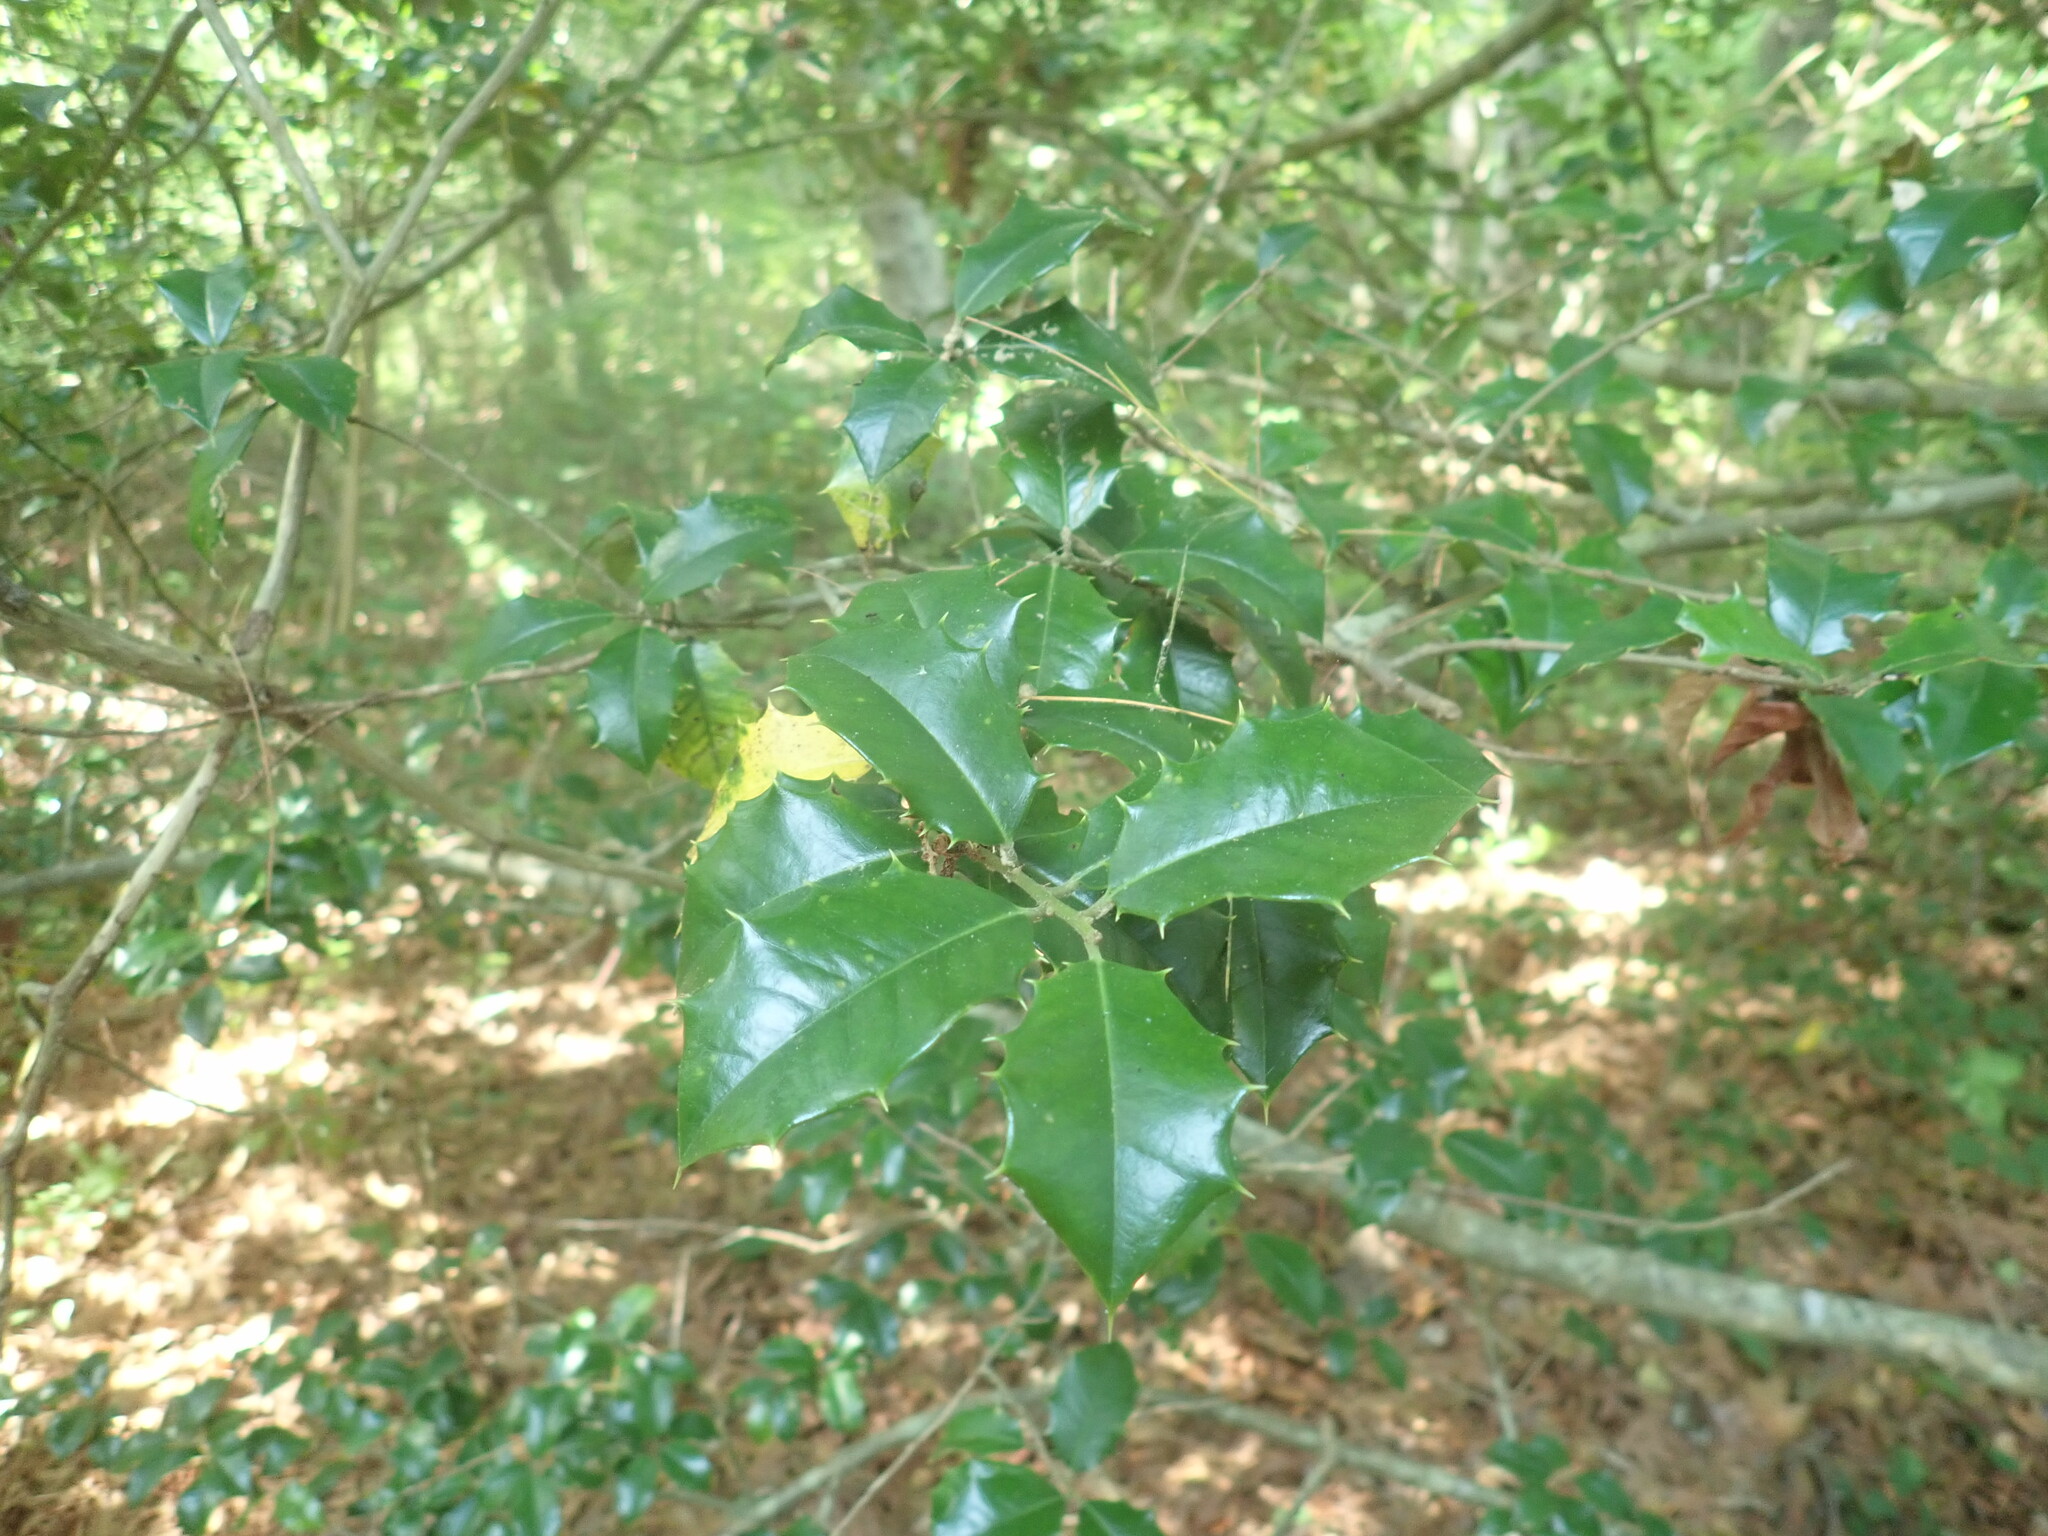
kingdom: Plantae
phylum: Tracheophyta
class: Magnoliopsida
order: Aquifoliales
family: Aquifoliaceae
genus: Ilex
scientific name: Ilex opaca
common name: American holly
